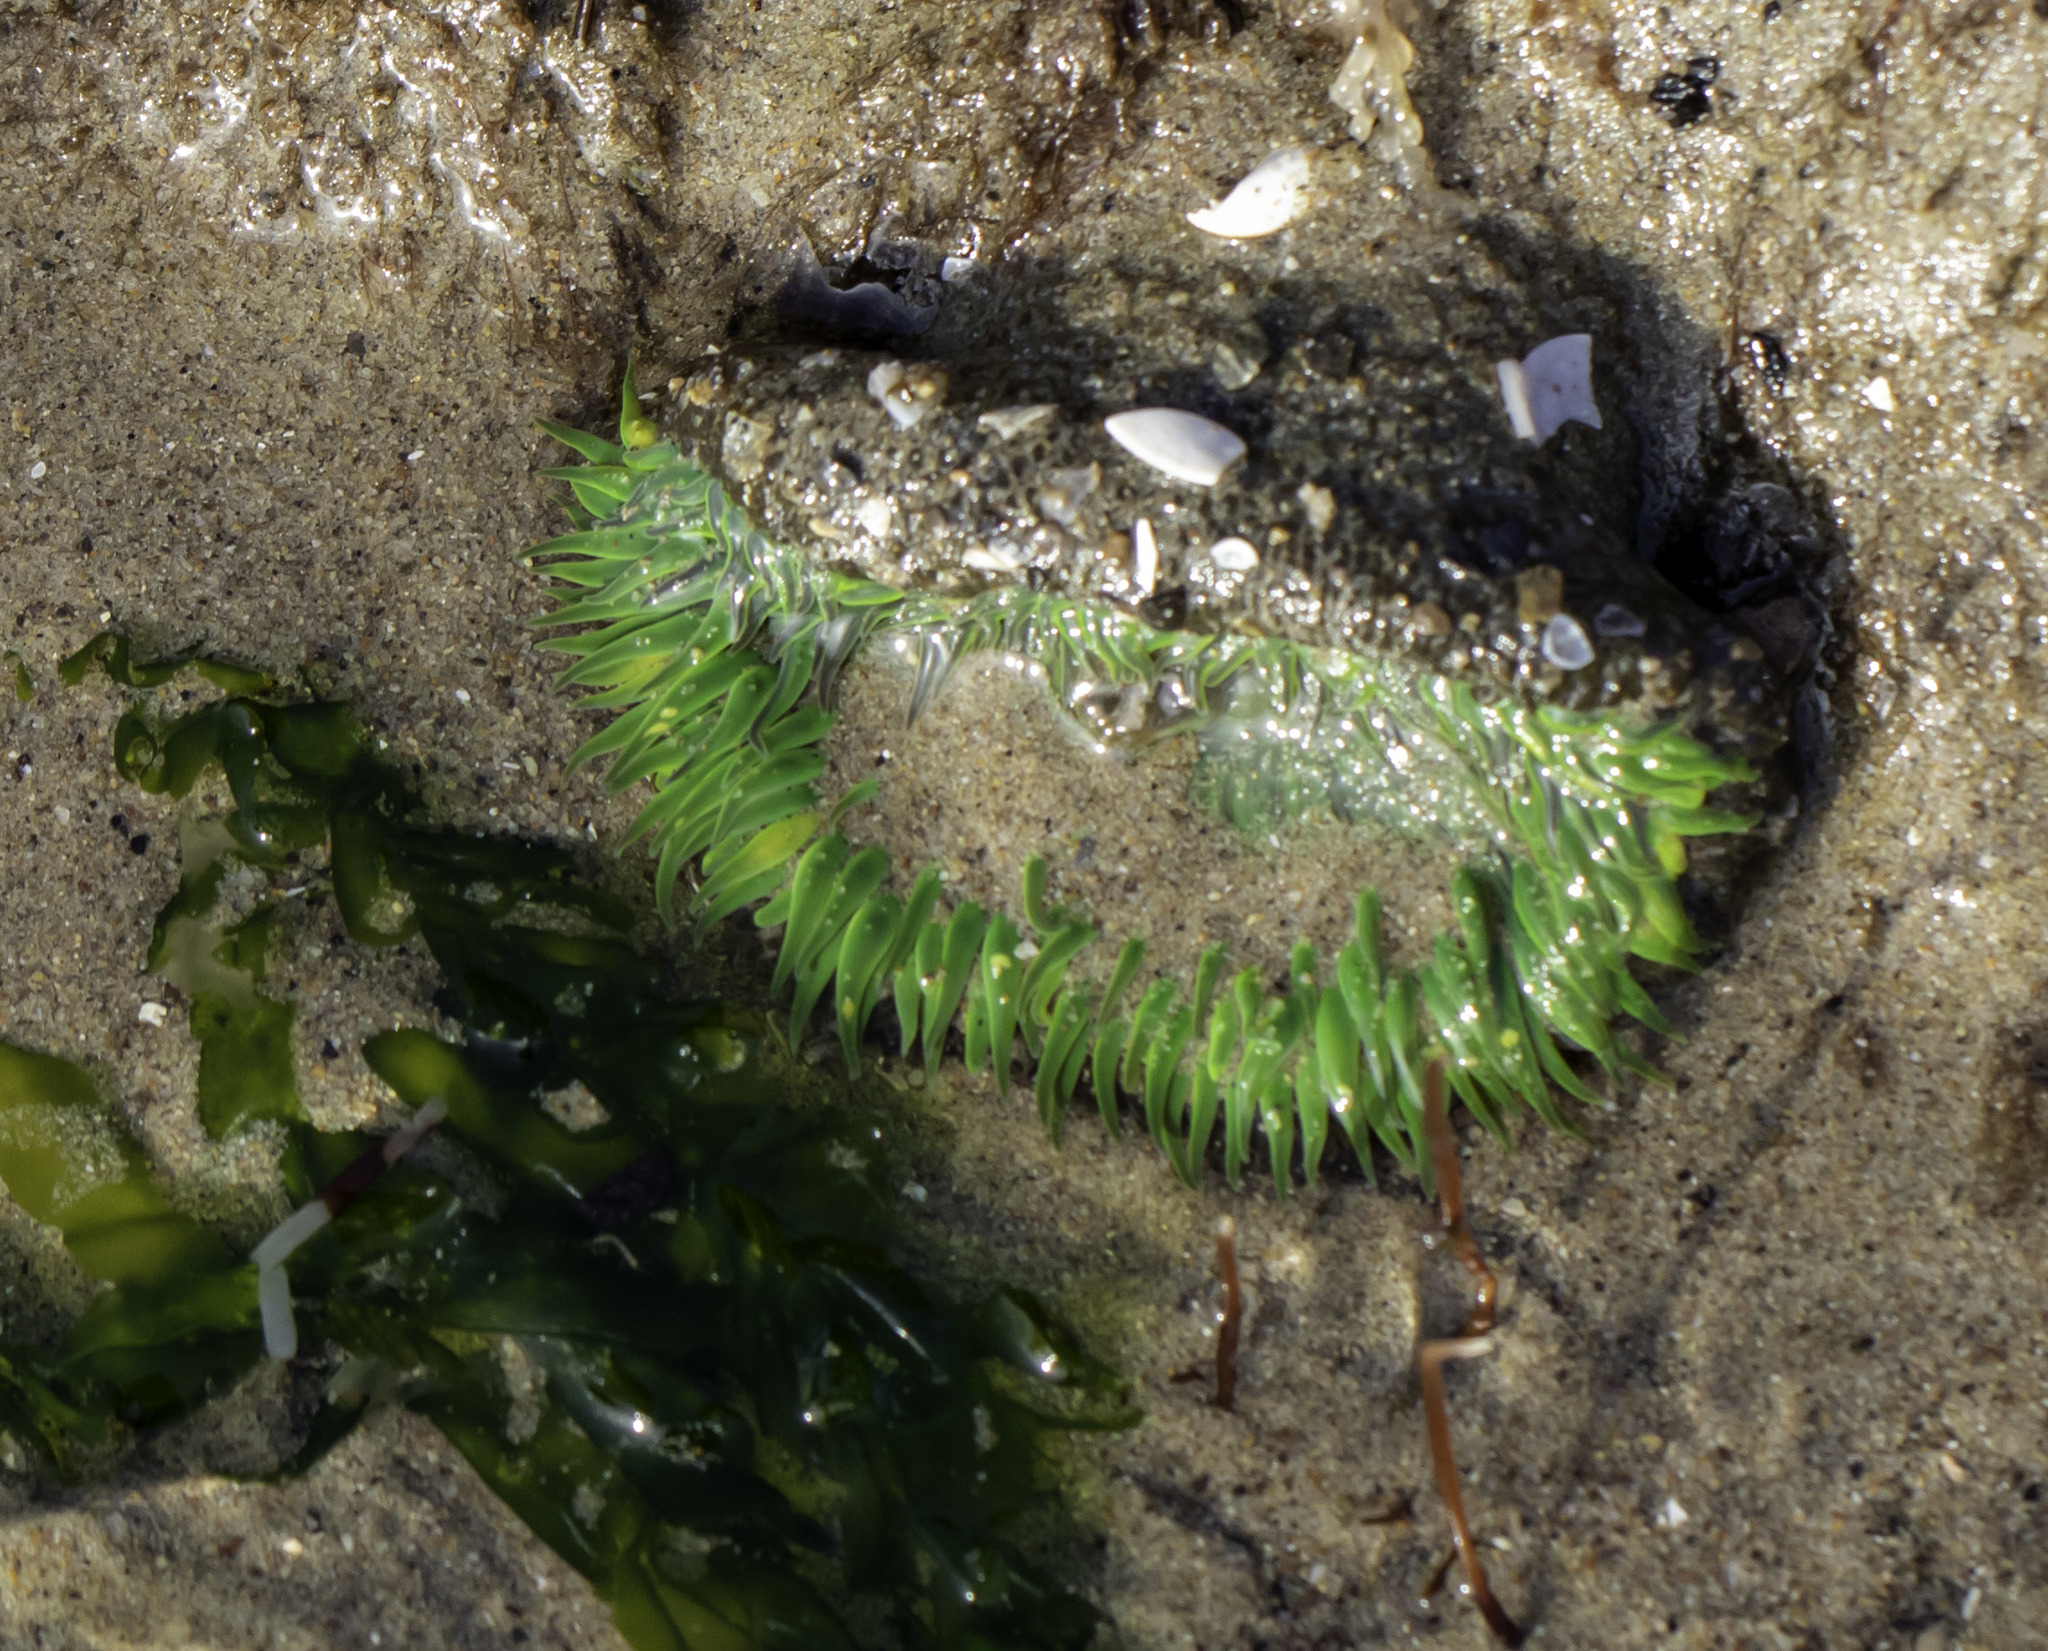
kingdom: Animalia
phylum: Cnidaria
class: Anthozoa
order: Actiniaria
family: Actiniidae
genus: Anthopleura
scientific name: Anthopleura sola
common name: Sun anemone
